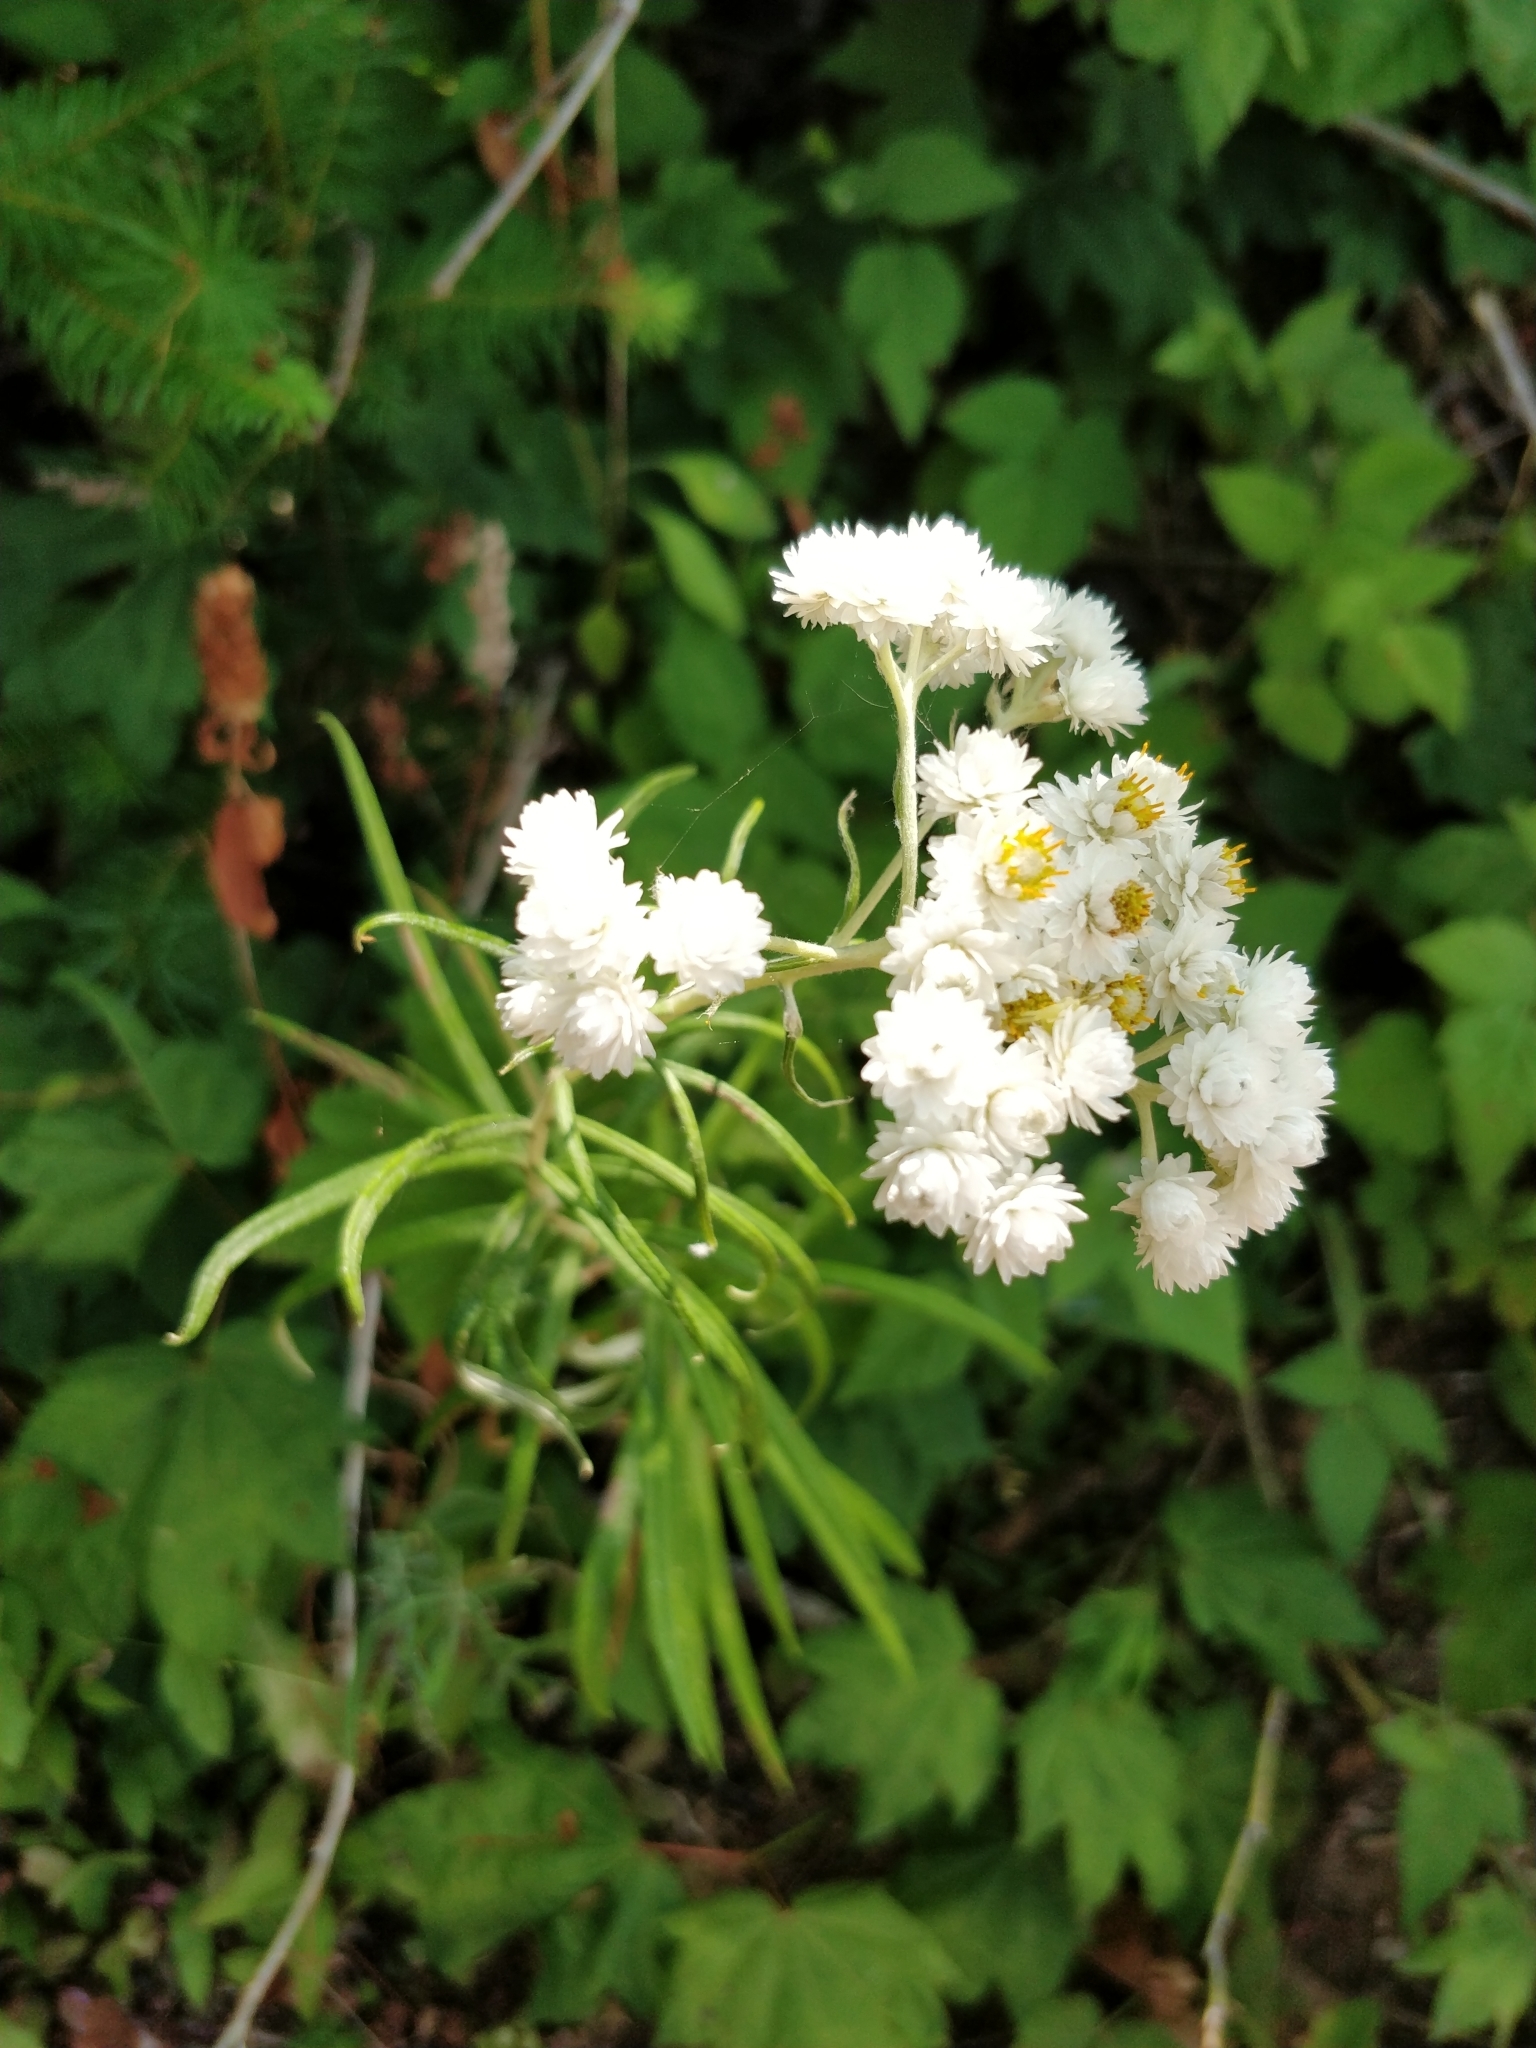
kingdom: Plantae
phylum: Tracheophyta
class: Magnoliopsida
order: Asterales
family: Asteraceae
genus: Anaphalis
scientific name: Anaphalis margaritacea
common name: Pearly everlasting
